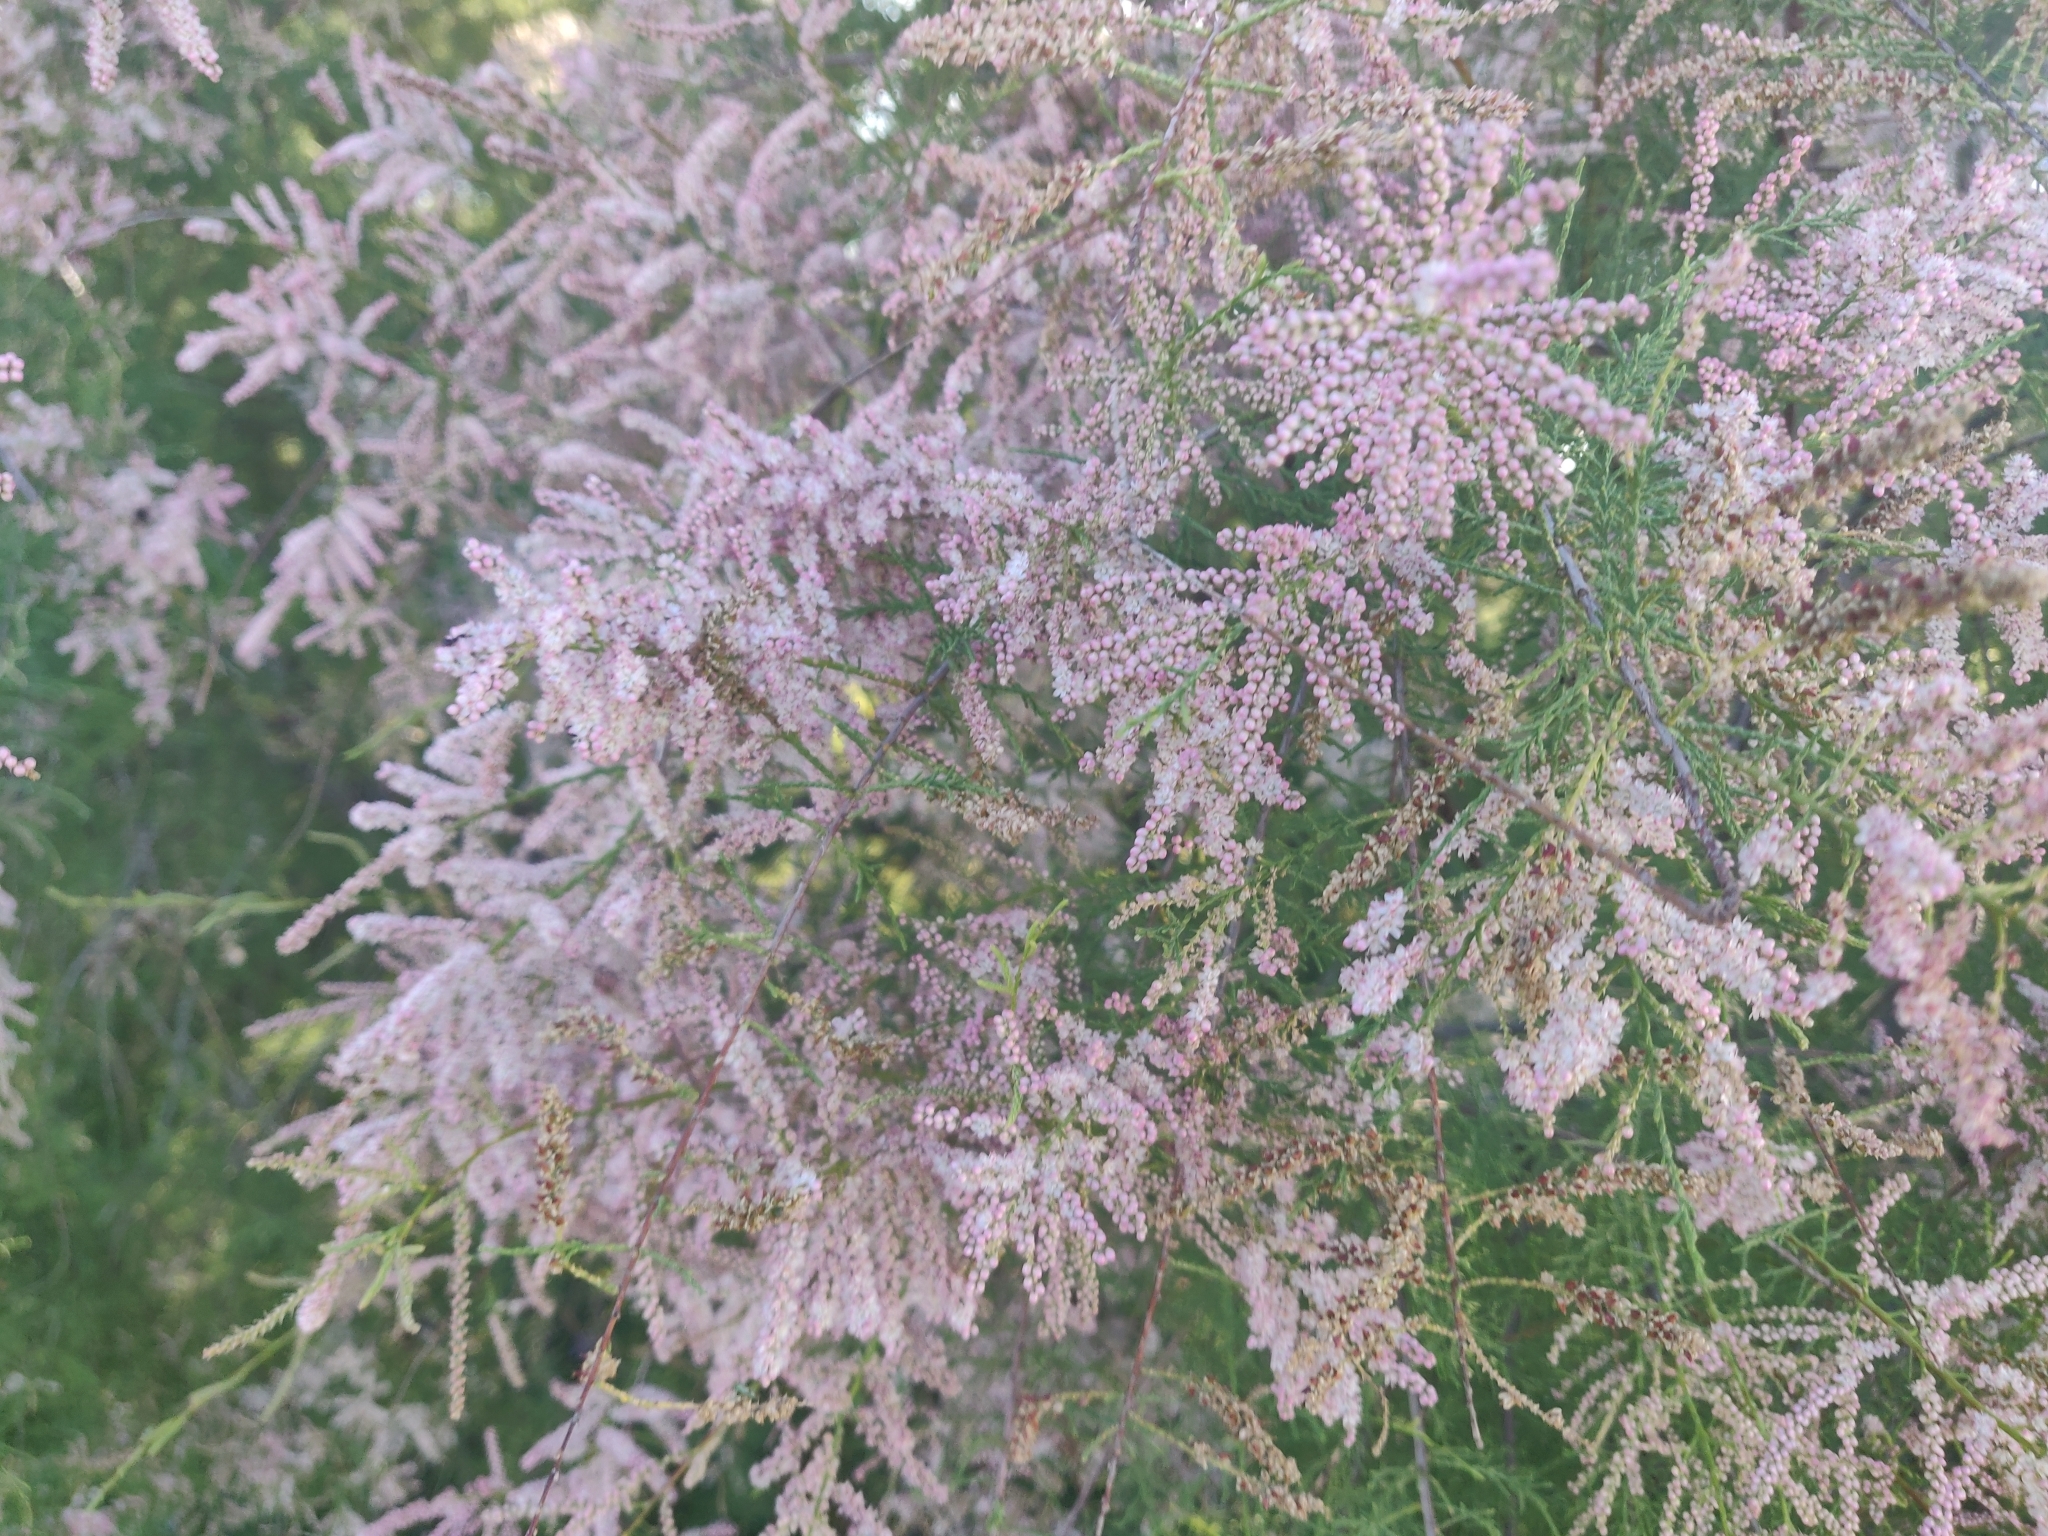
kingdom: Plantae
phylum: Tracheophyta
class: Magnoliopsida
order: Caryophyllales
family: Tamaricaceae
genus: Tamarix
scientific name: Tamarix gallica
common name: Tamarisk
